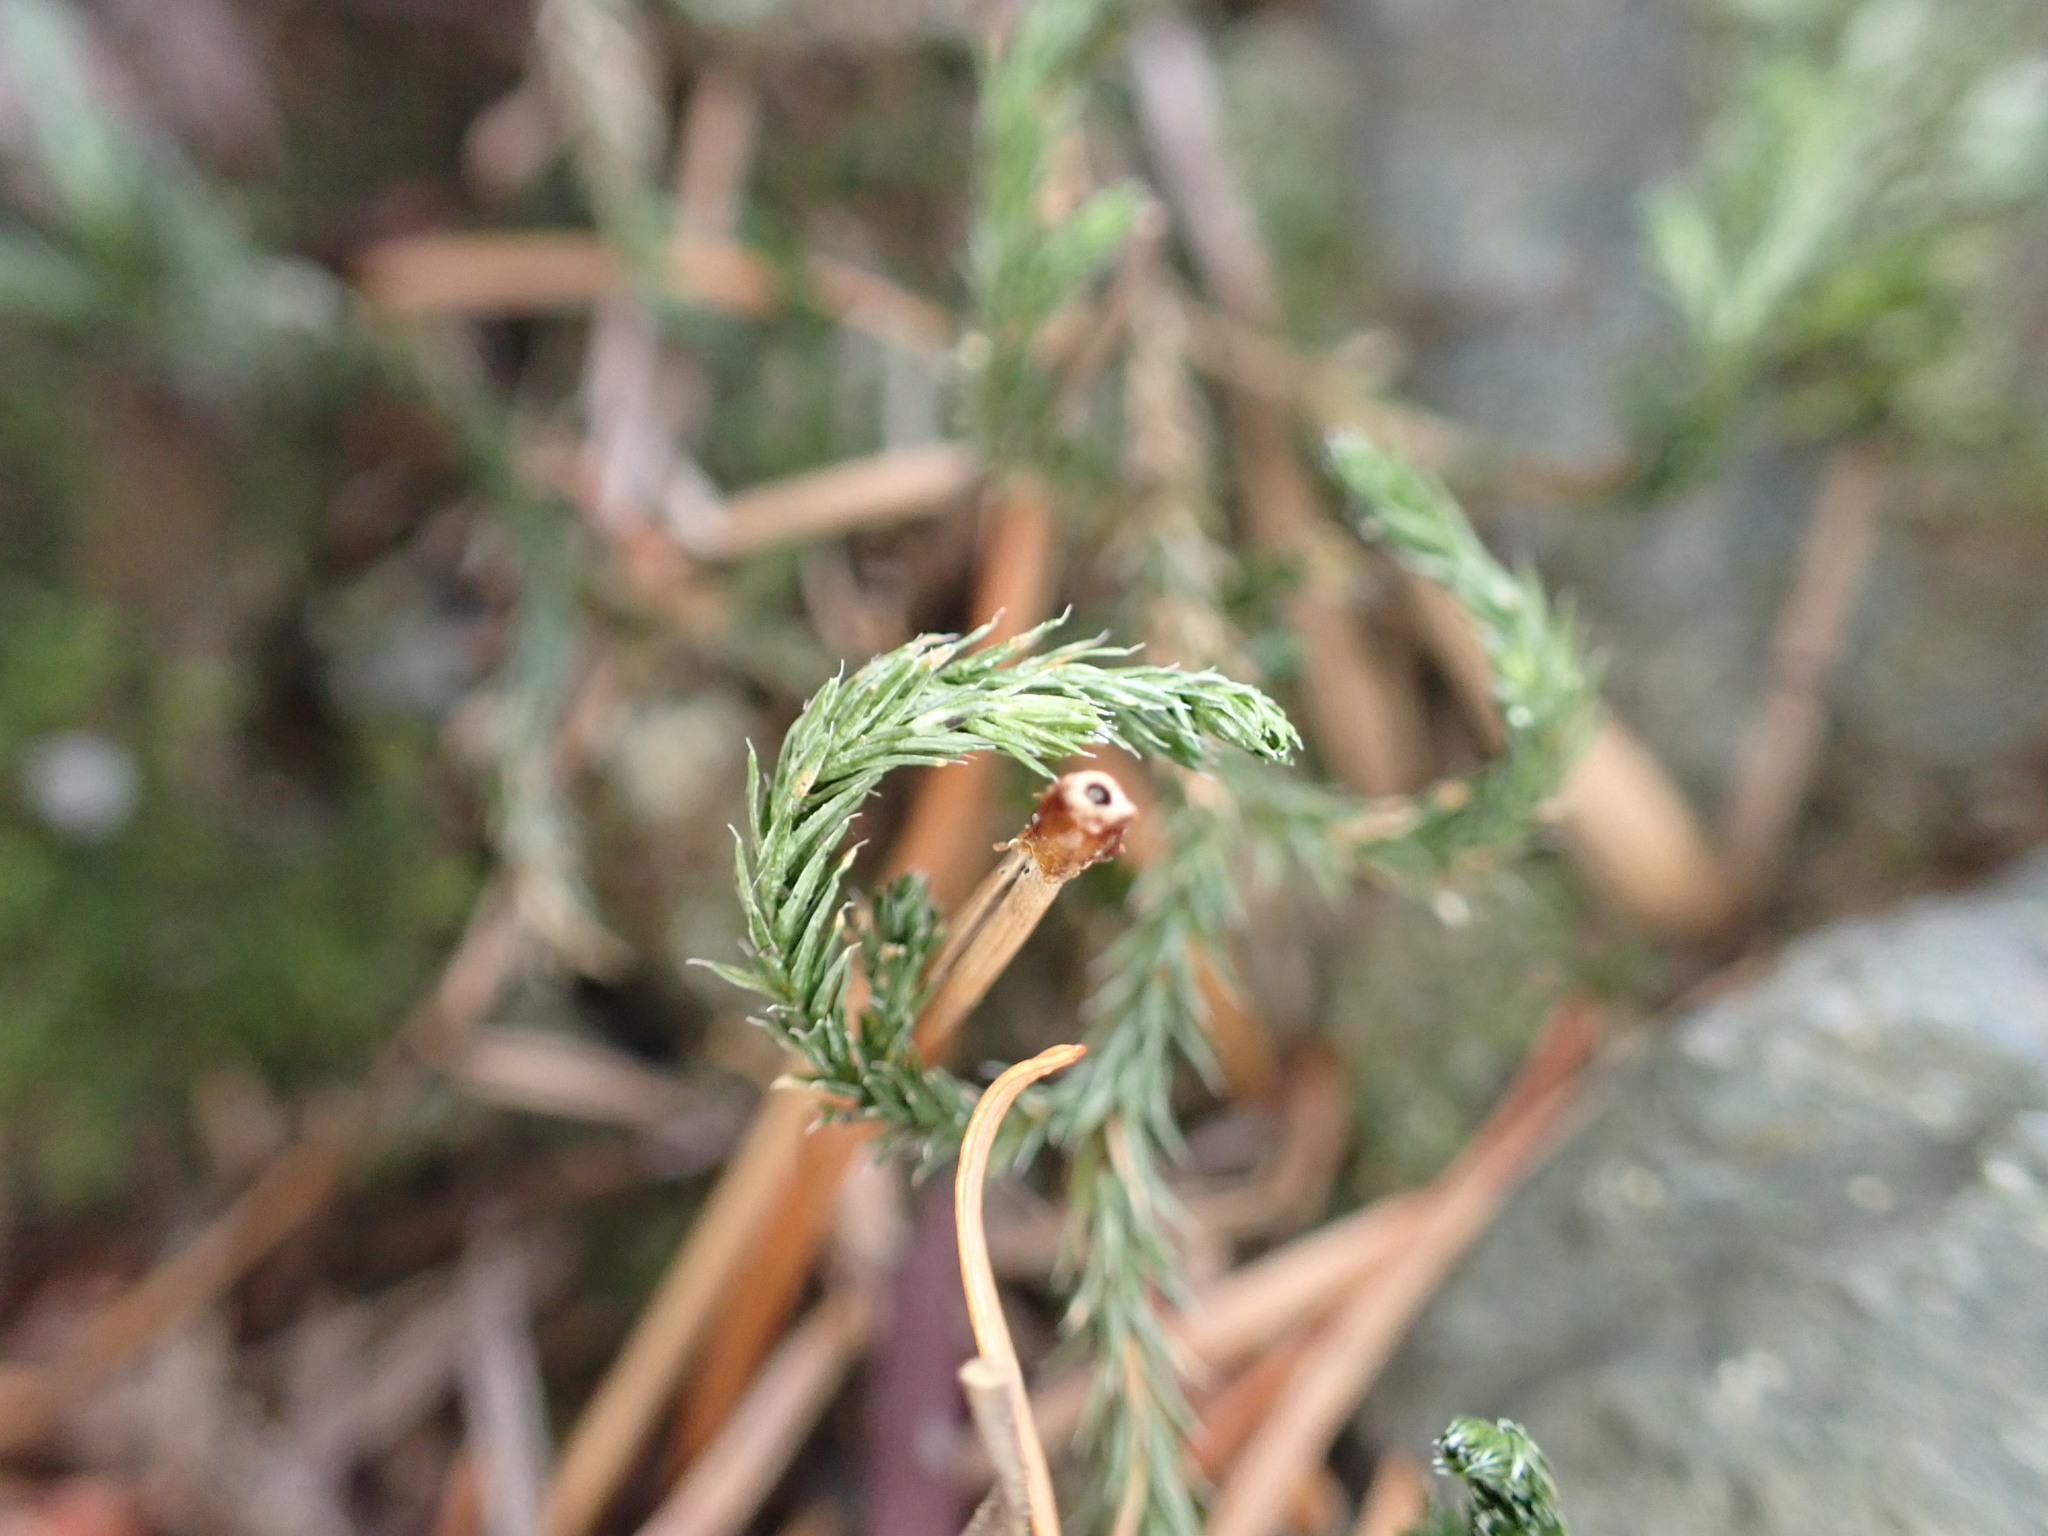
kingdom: Plantae
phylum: Tracheophyta
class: Lycopodiopsida
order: Selaginellales
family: Selaginellaceae
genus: Selaginella
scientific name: Selaginella wallacei
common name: Wallace's selaginella
